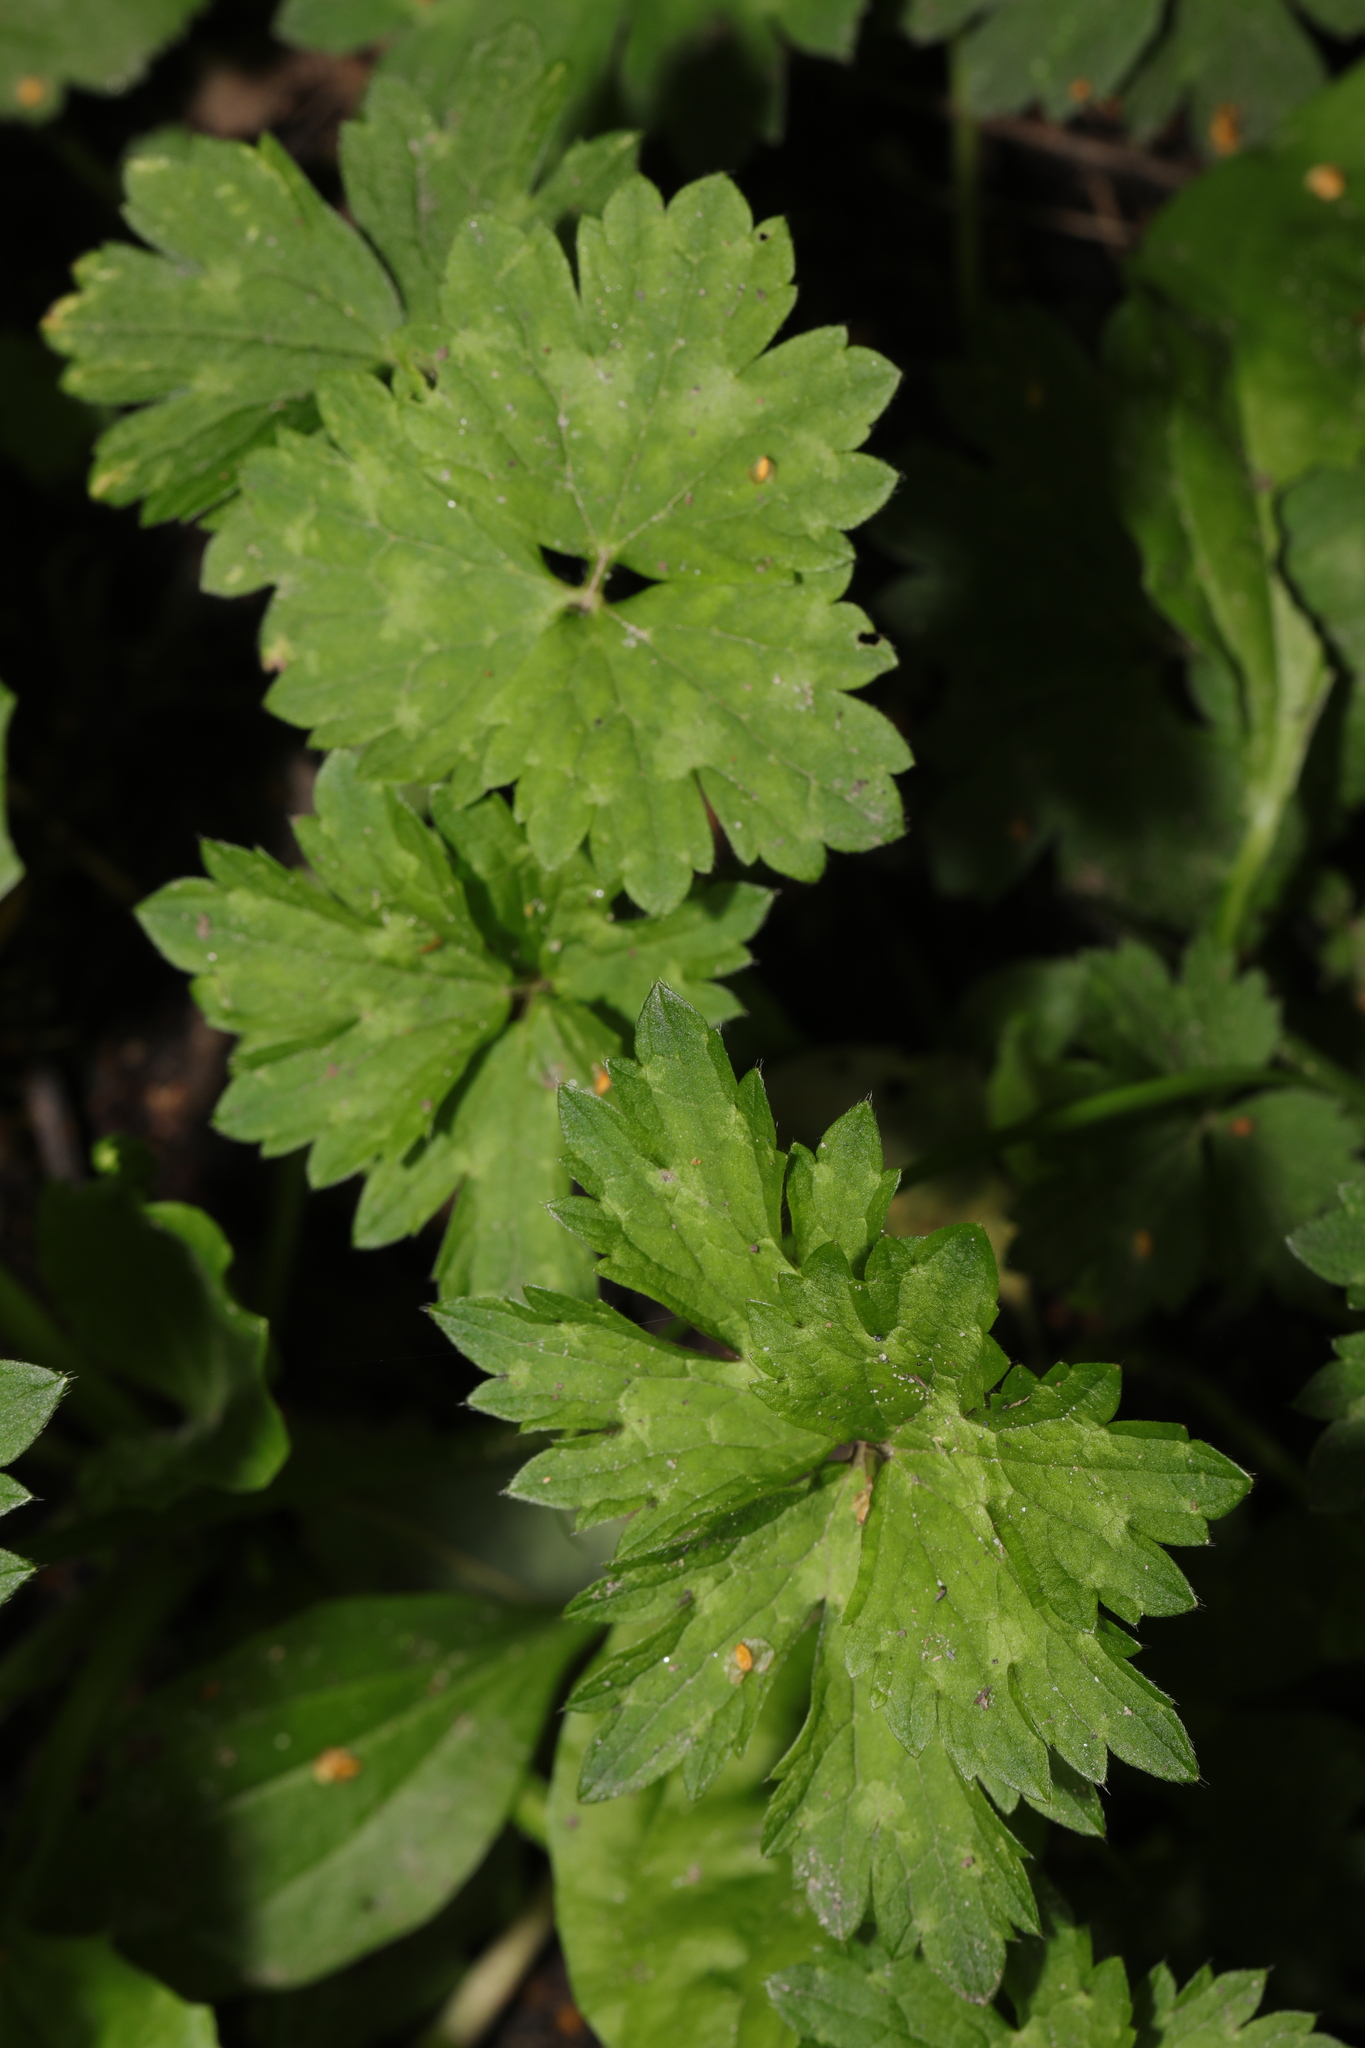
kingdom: Plantae
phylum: Tracheophyta
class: Magnoliopsida
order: Ranunculales
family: Ranunculaceae
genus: Ranunculus
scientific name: Ranunculus repens
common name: Creeping buttercup
